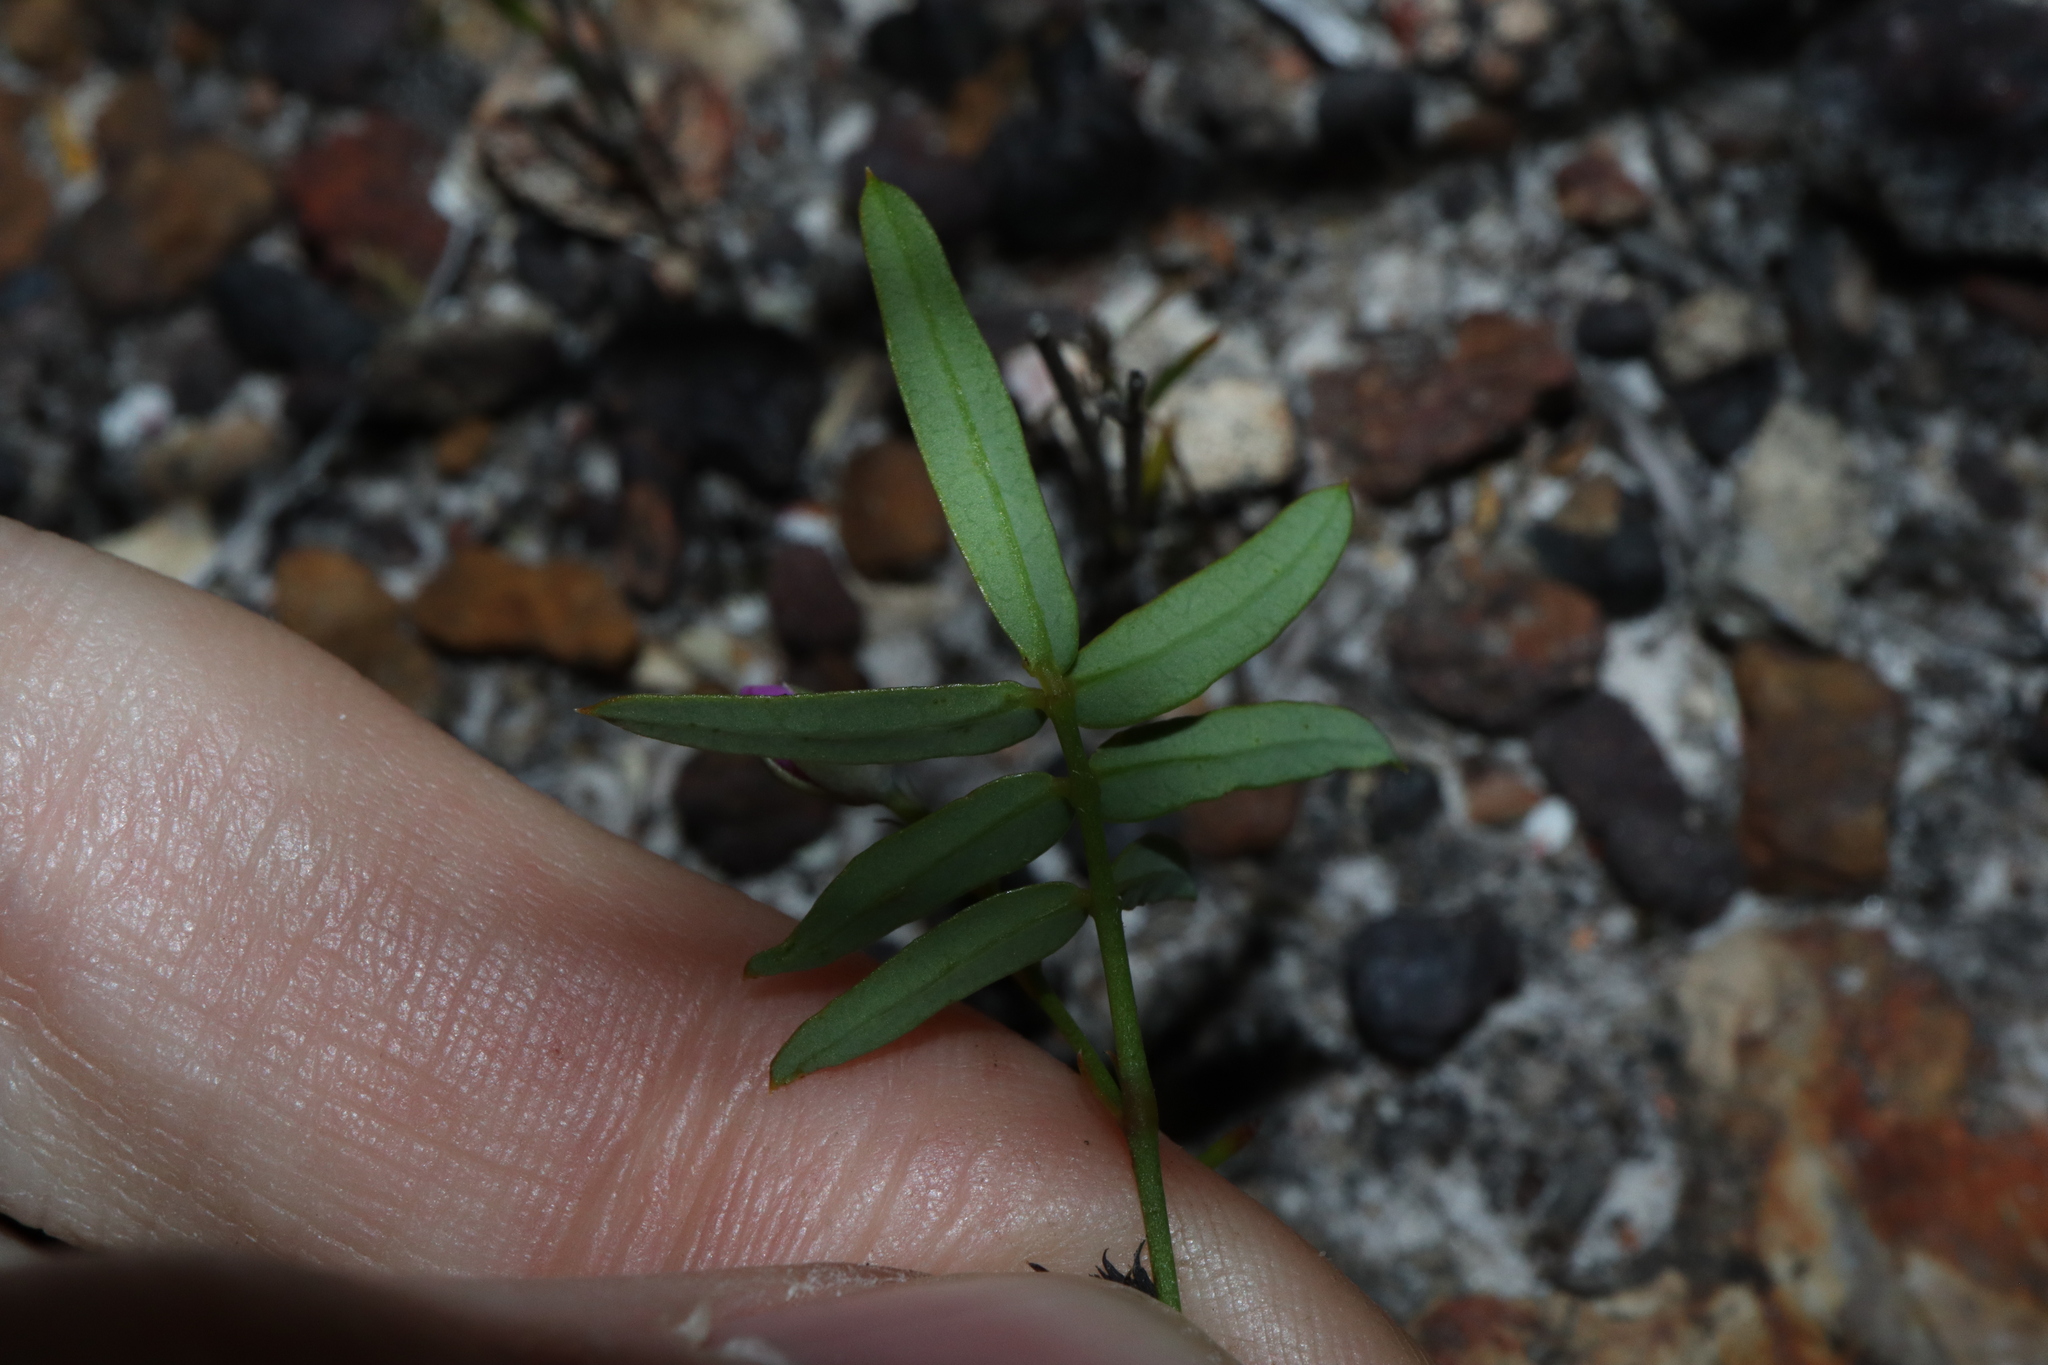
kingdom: Plantae
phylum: Tracheophyta
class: Magnoliopsida
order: Fabales
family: Fabaceae
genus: Gompholobium
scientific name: Gompholobium knightianum
